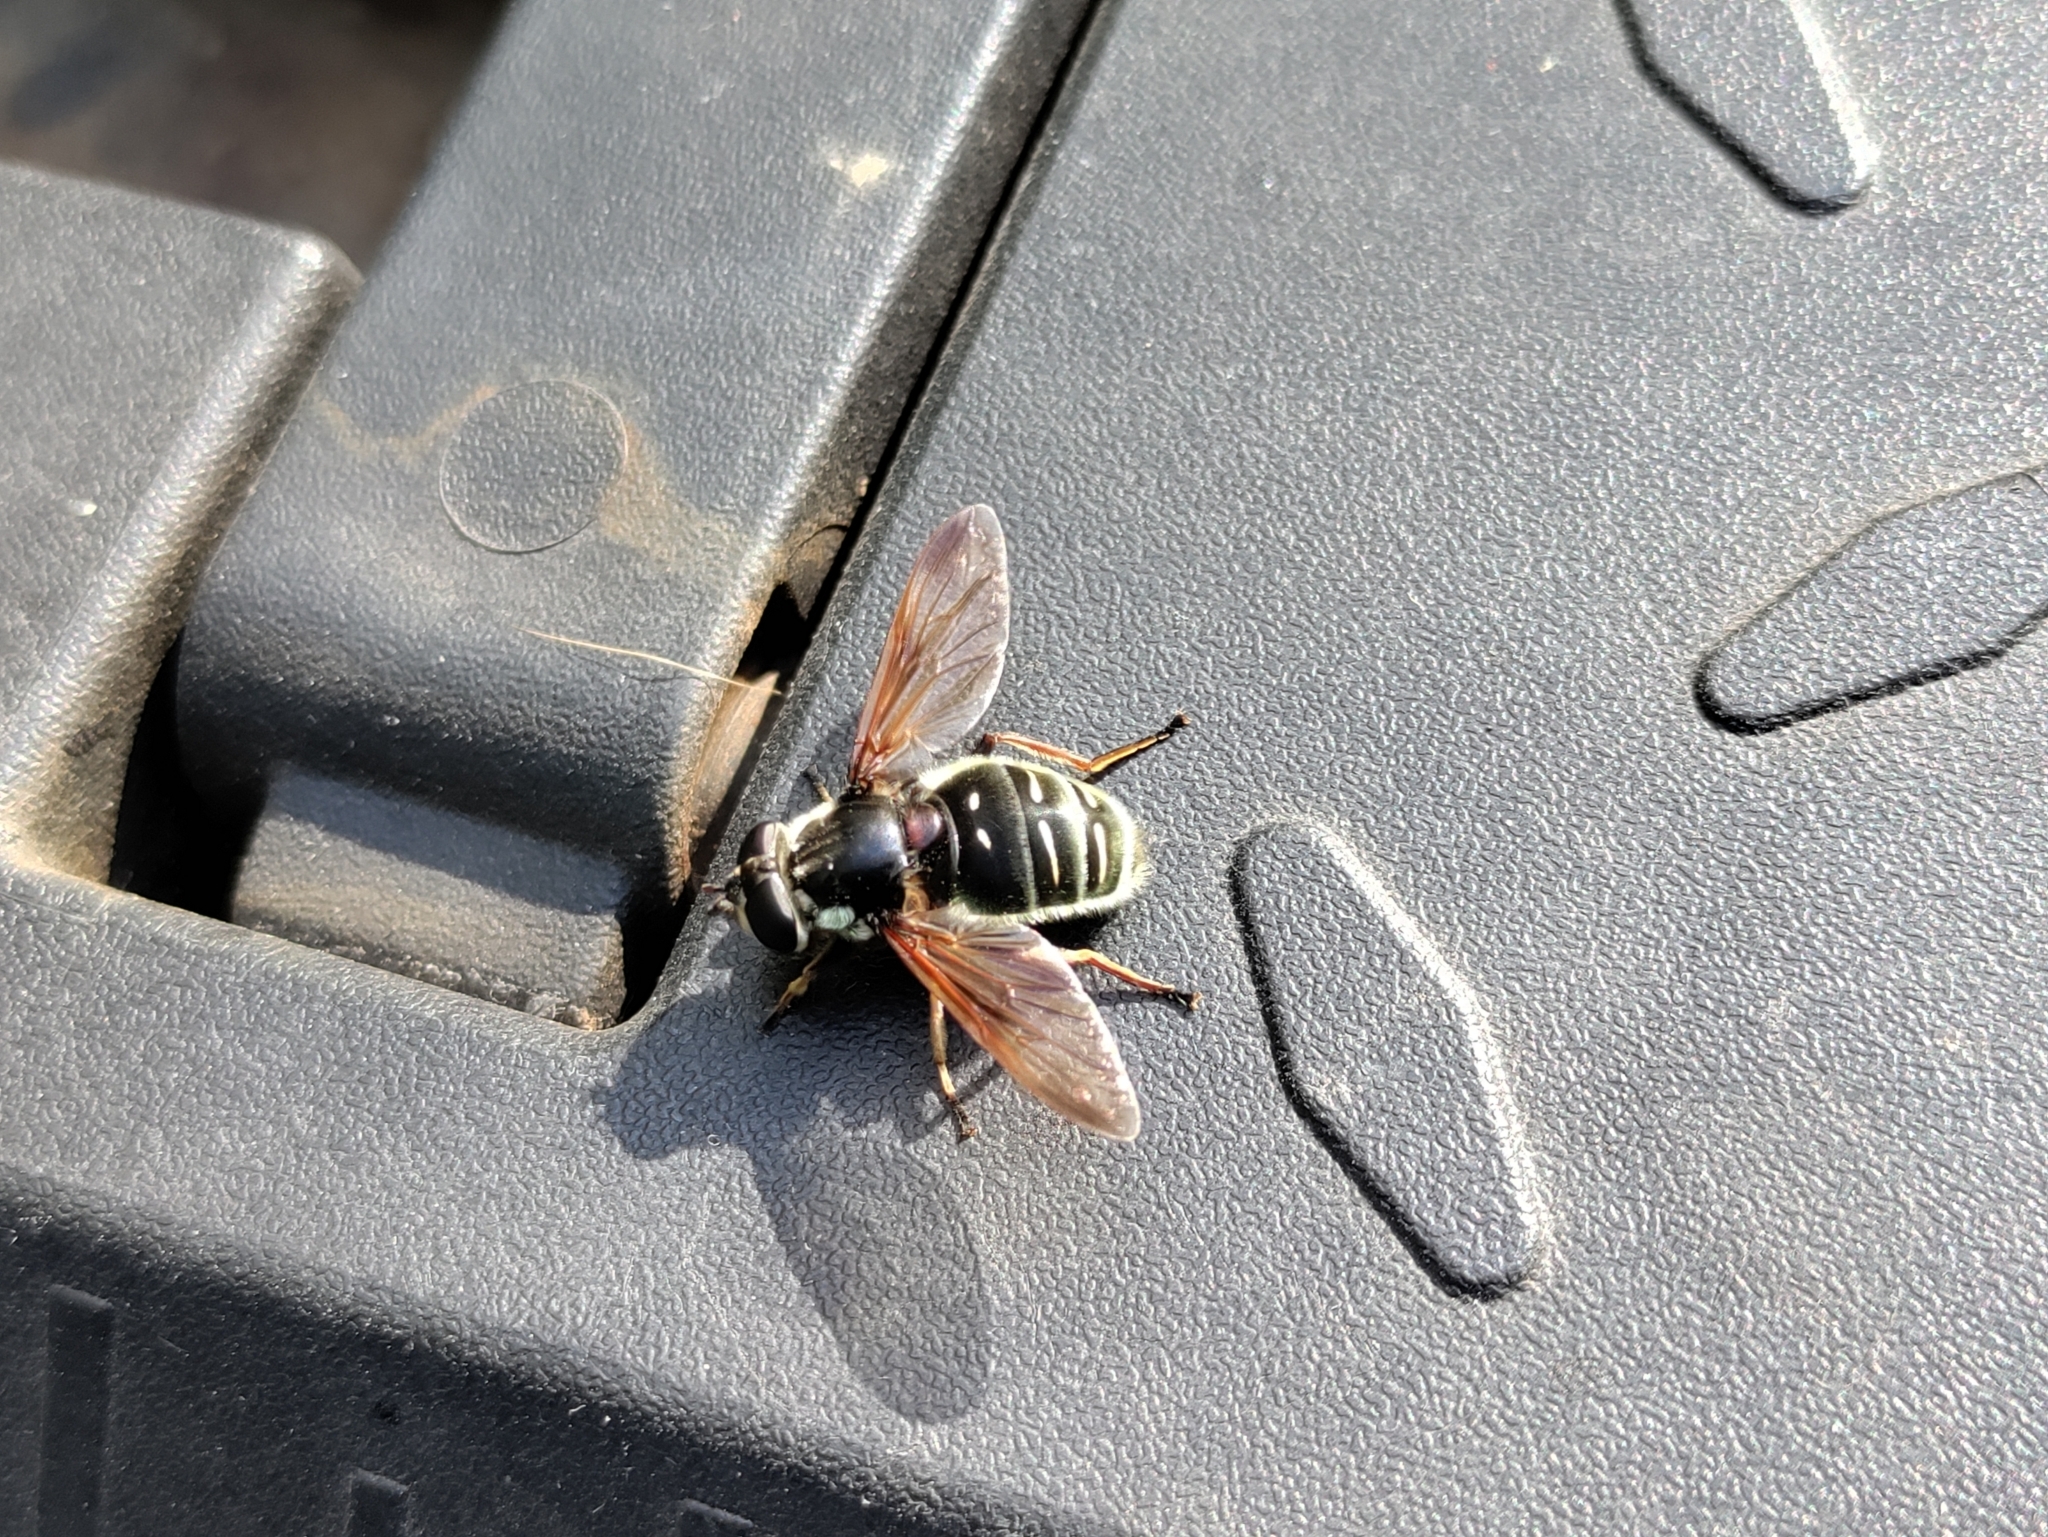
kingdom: Animalia
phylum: Arthropoda
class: Insecta
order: Diptera
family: Syrphidae
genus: Sericomyia
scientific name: Sericomyia militaris
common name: Narrow-banded pond fly
